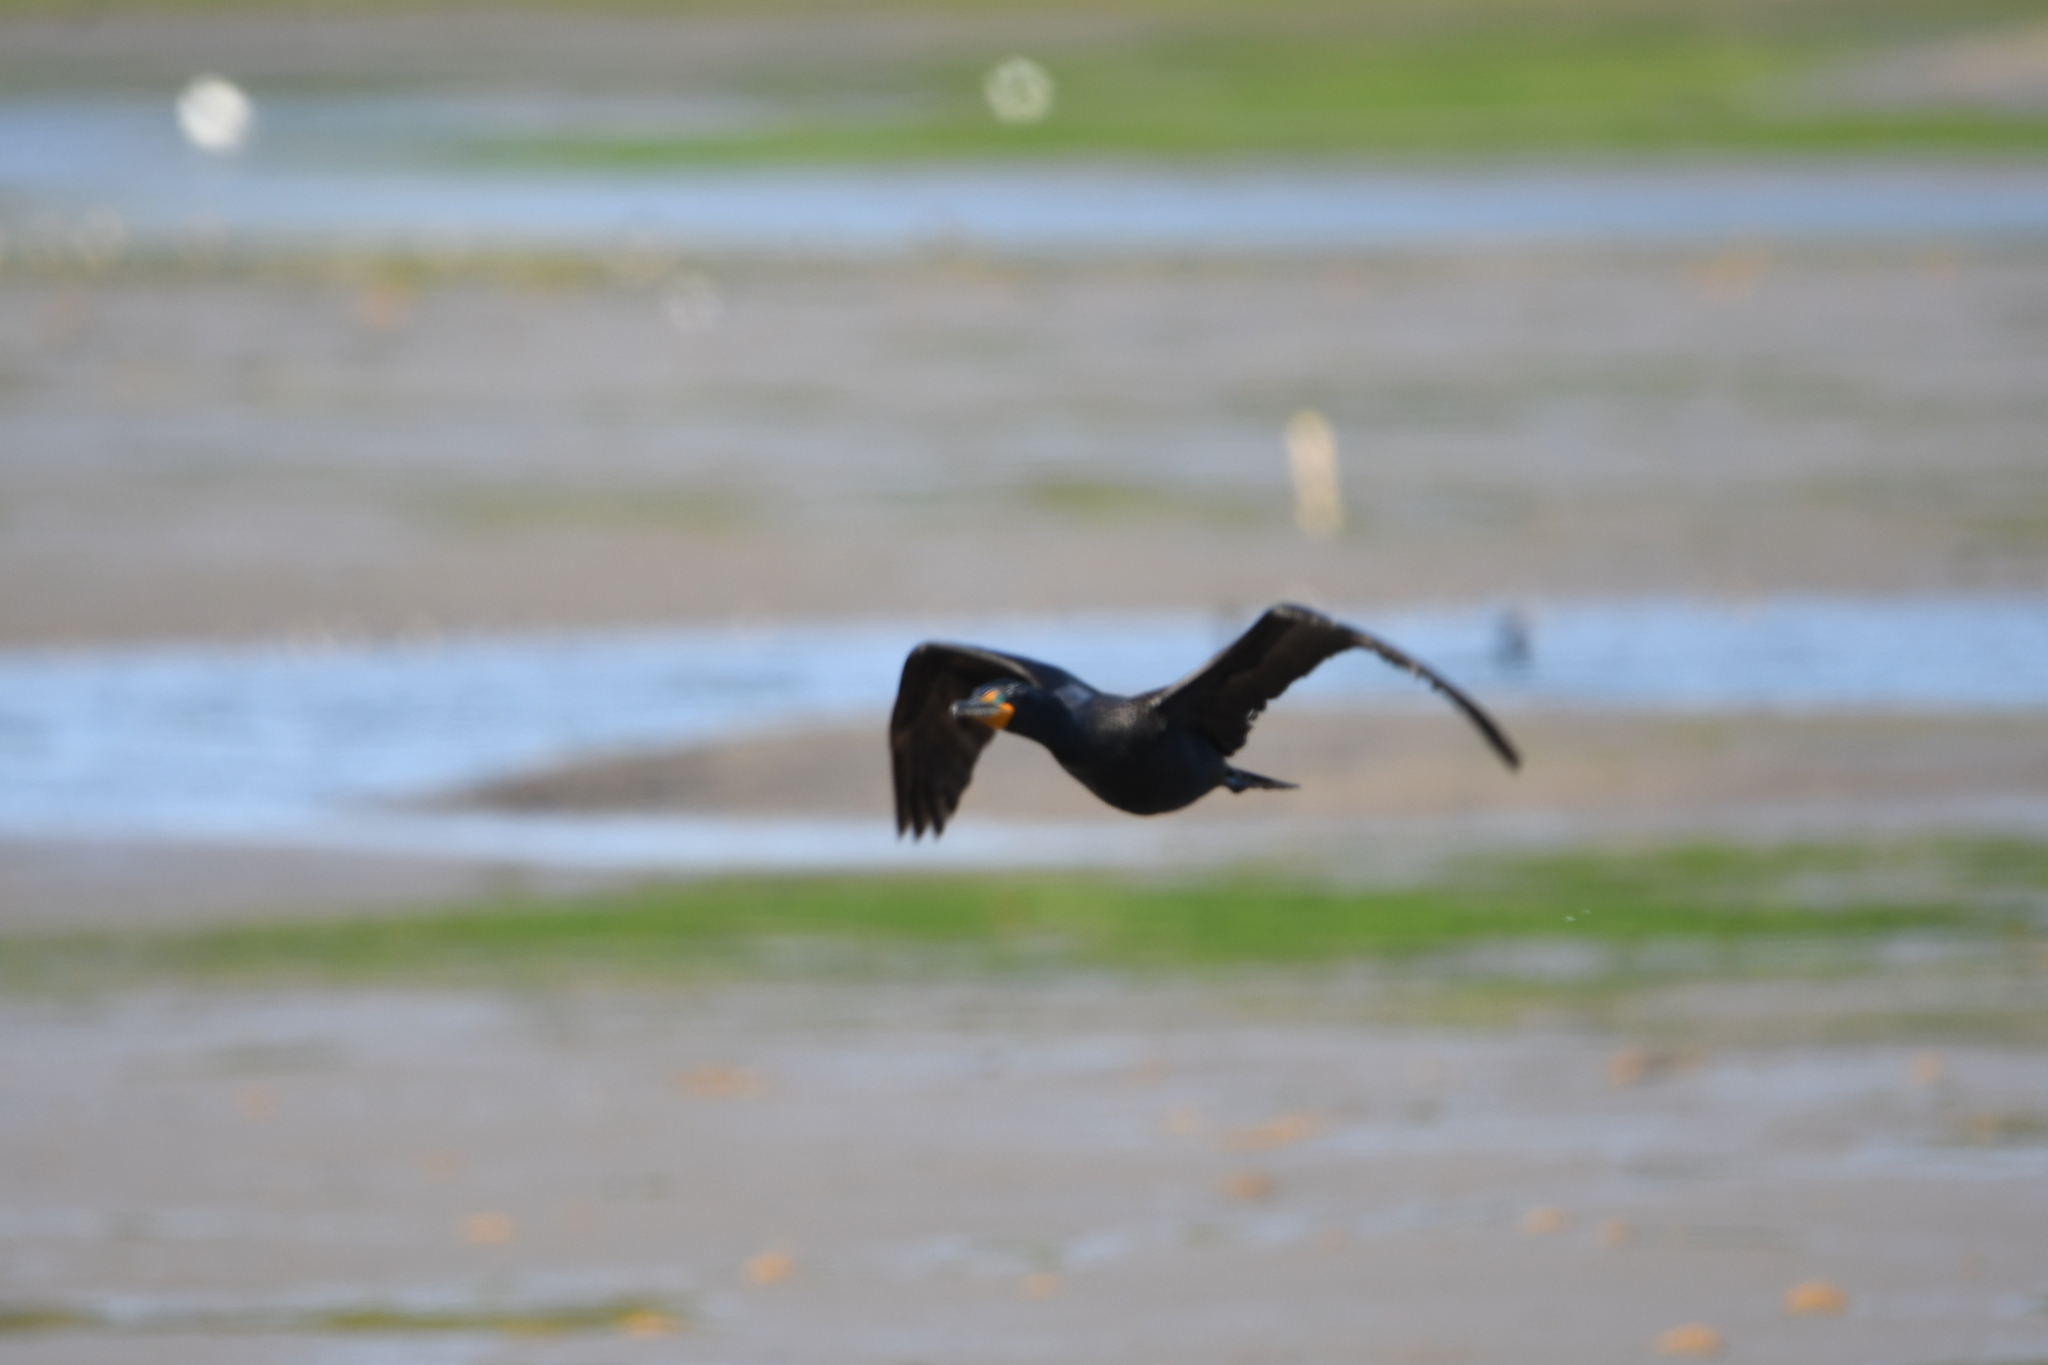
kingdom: Animalia
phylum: Chordata
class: Aves
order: Suliformes
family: Phalacrocoracidae
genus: Phalacrocorax
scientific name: Phalacrocorax auritus
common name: Double-crested cormorant
